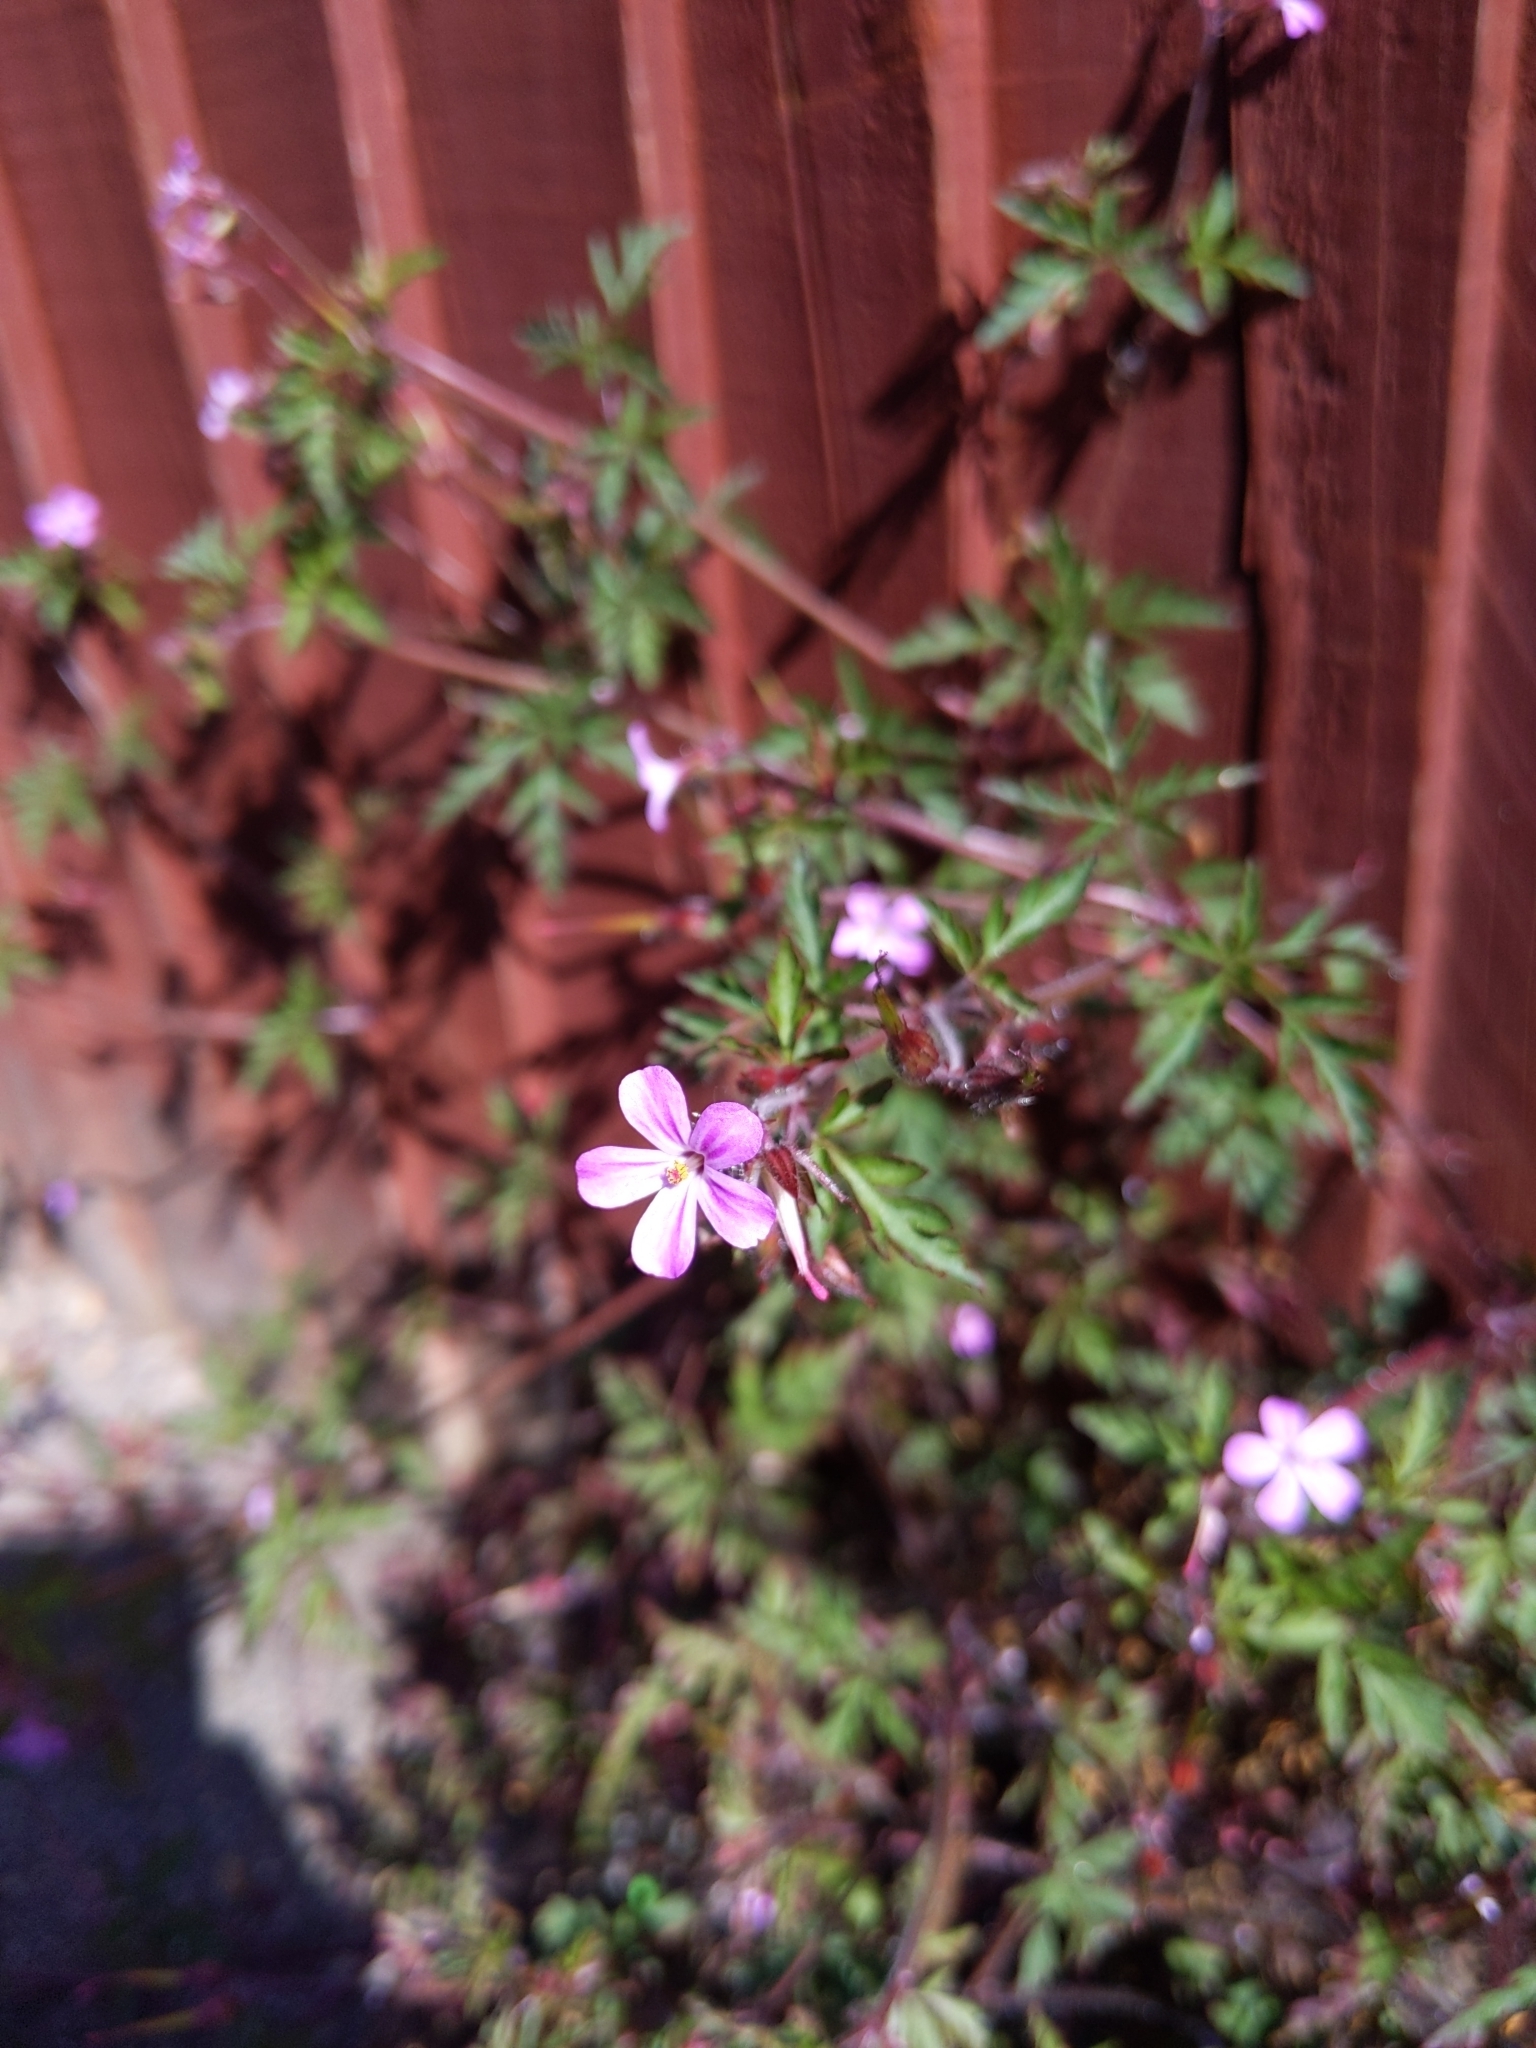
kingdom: Plantae
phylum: Tracheophyta
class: Magnoliopsida
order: Geraniales
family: Geraniaceae
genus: Geranium
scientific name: Geranium robertianum
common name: Herb-robert
